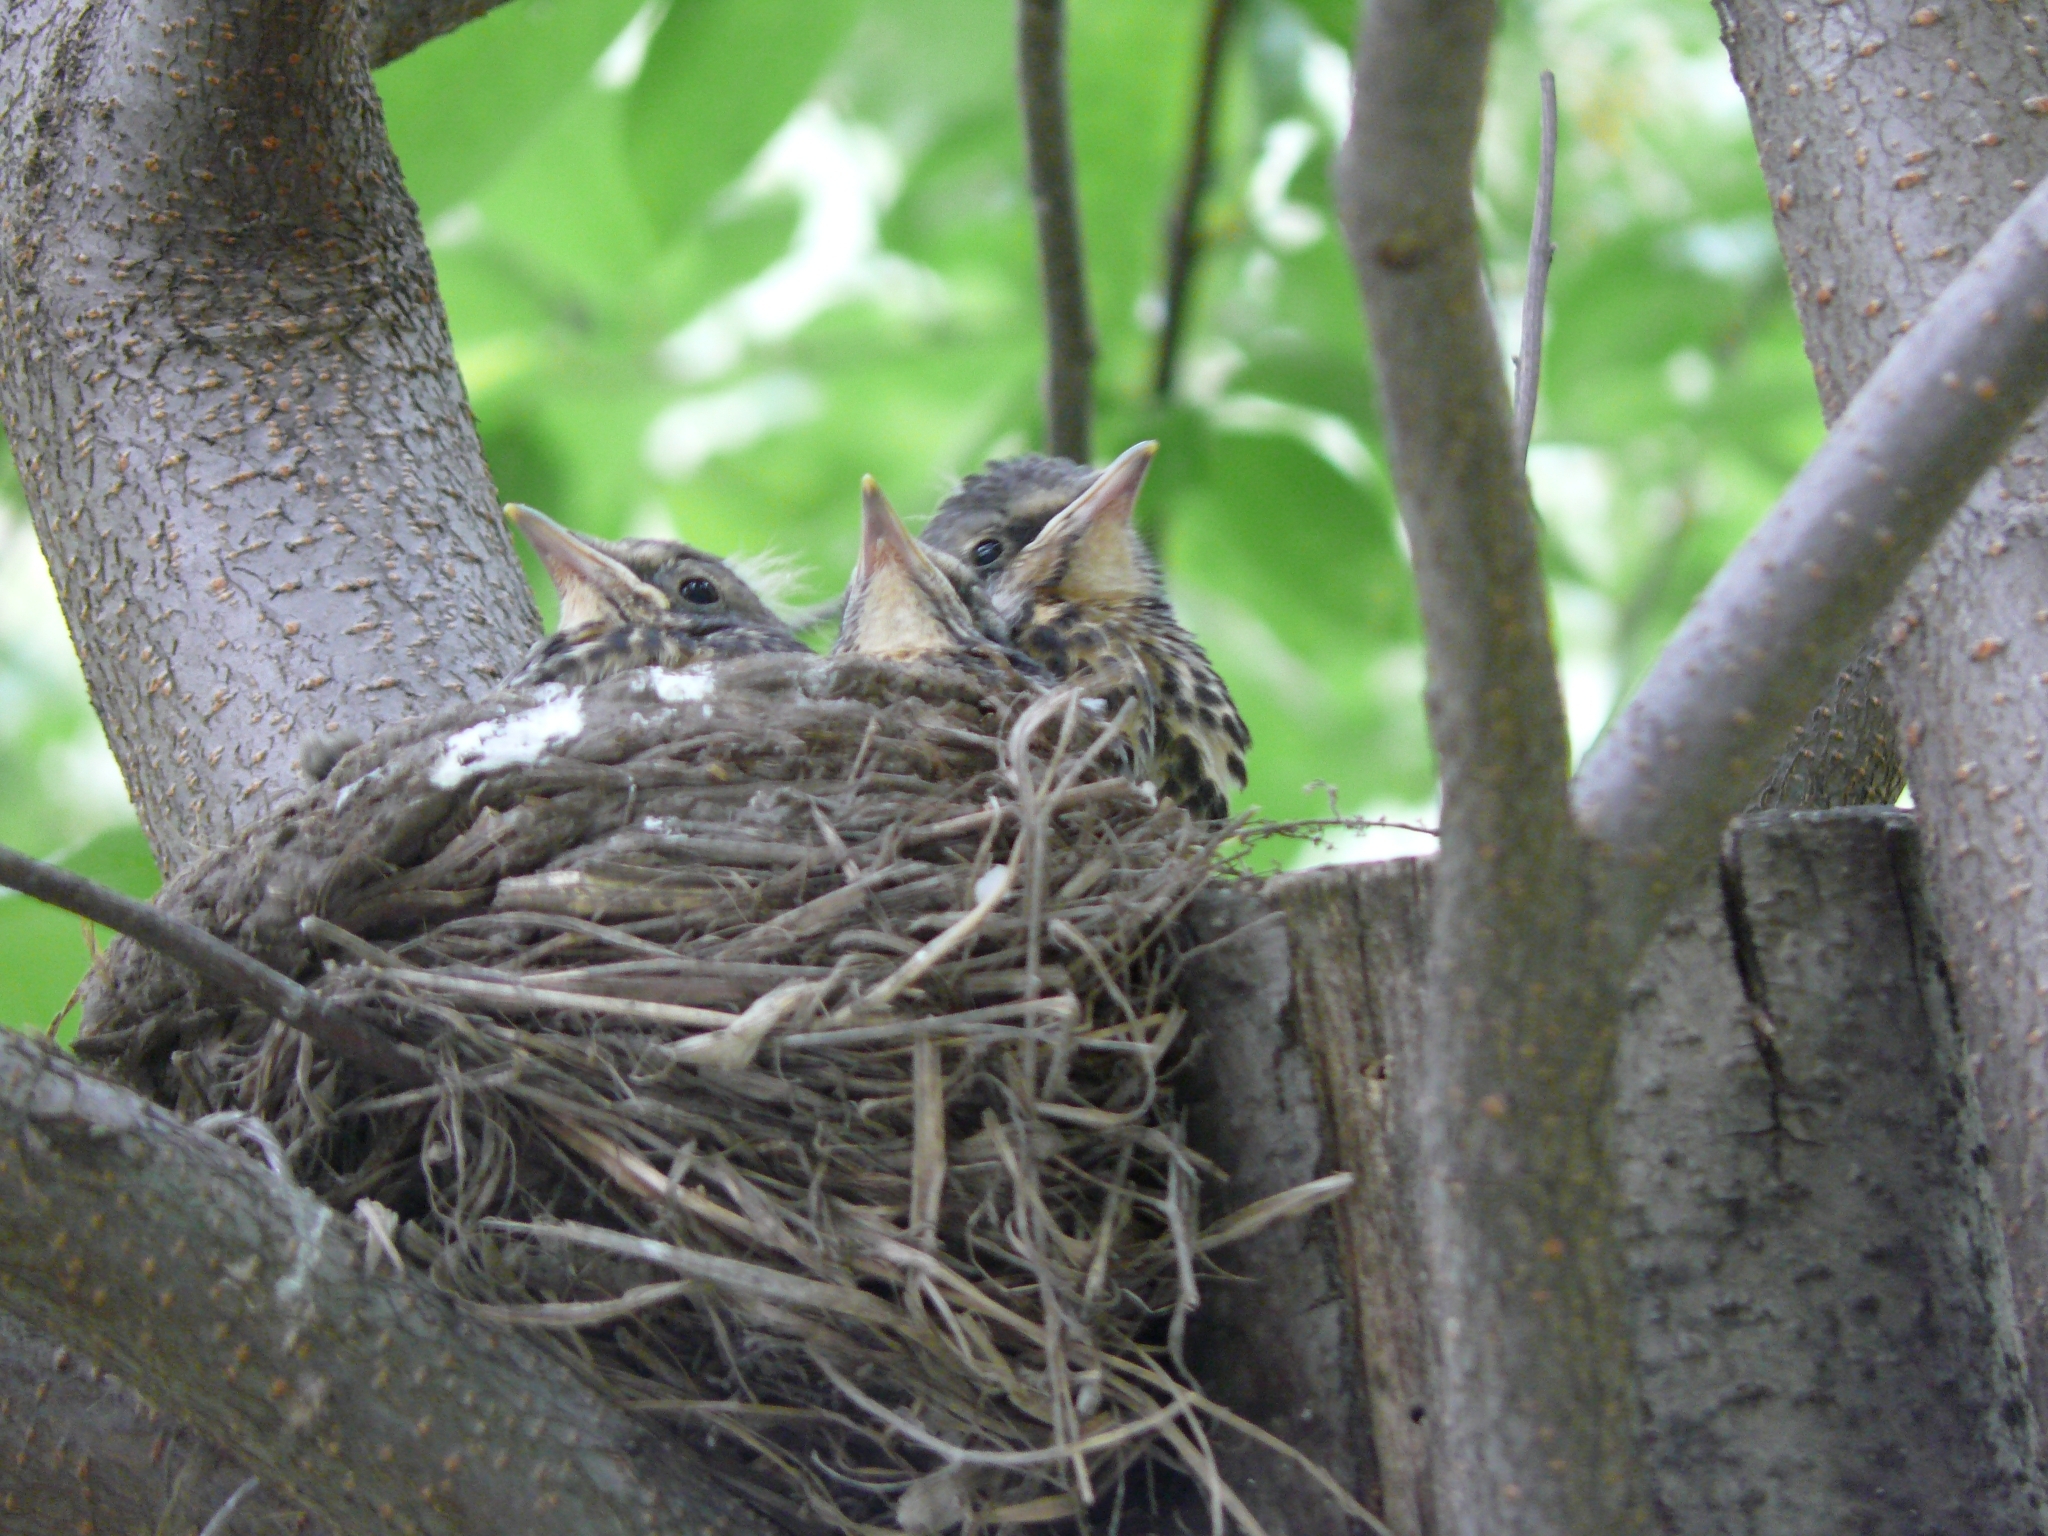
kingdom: Animalia
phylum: Chordata
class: Aves
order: Passeriformes
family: Turdidae
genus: Turdus
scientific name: Turdus pilaris
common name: Fieldfare
